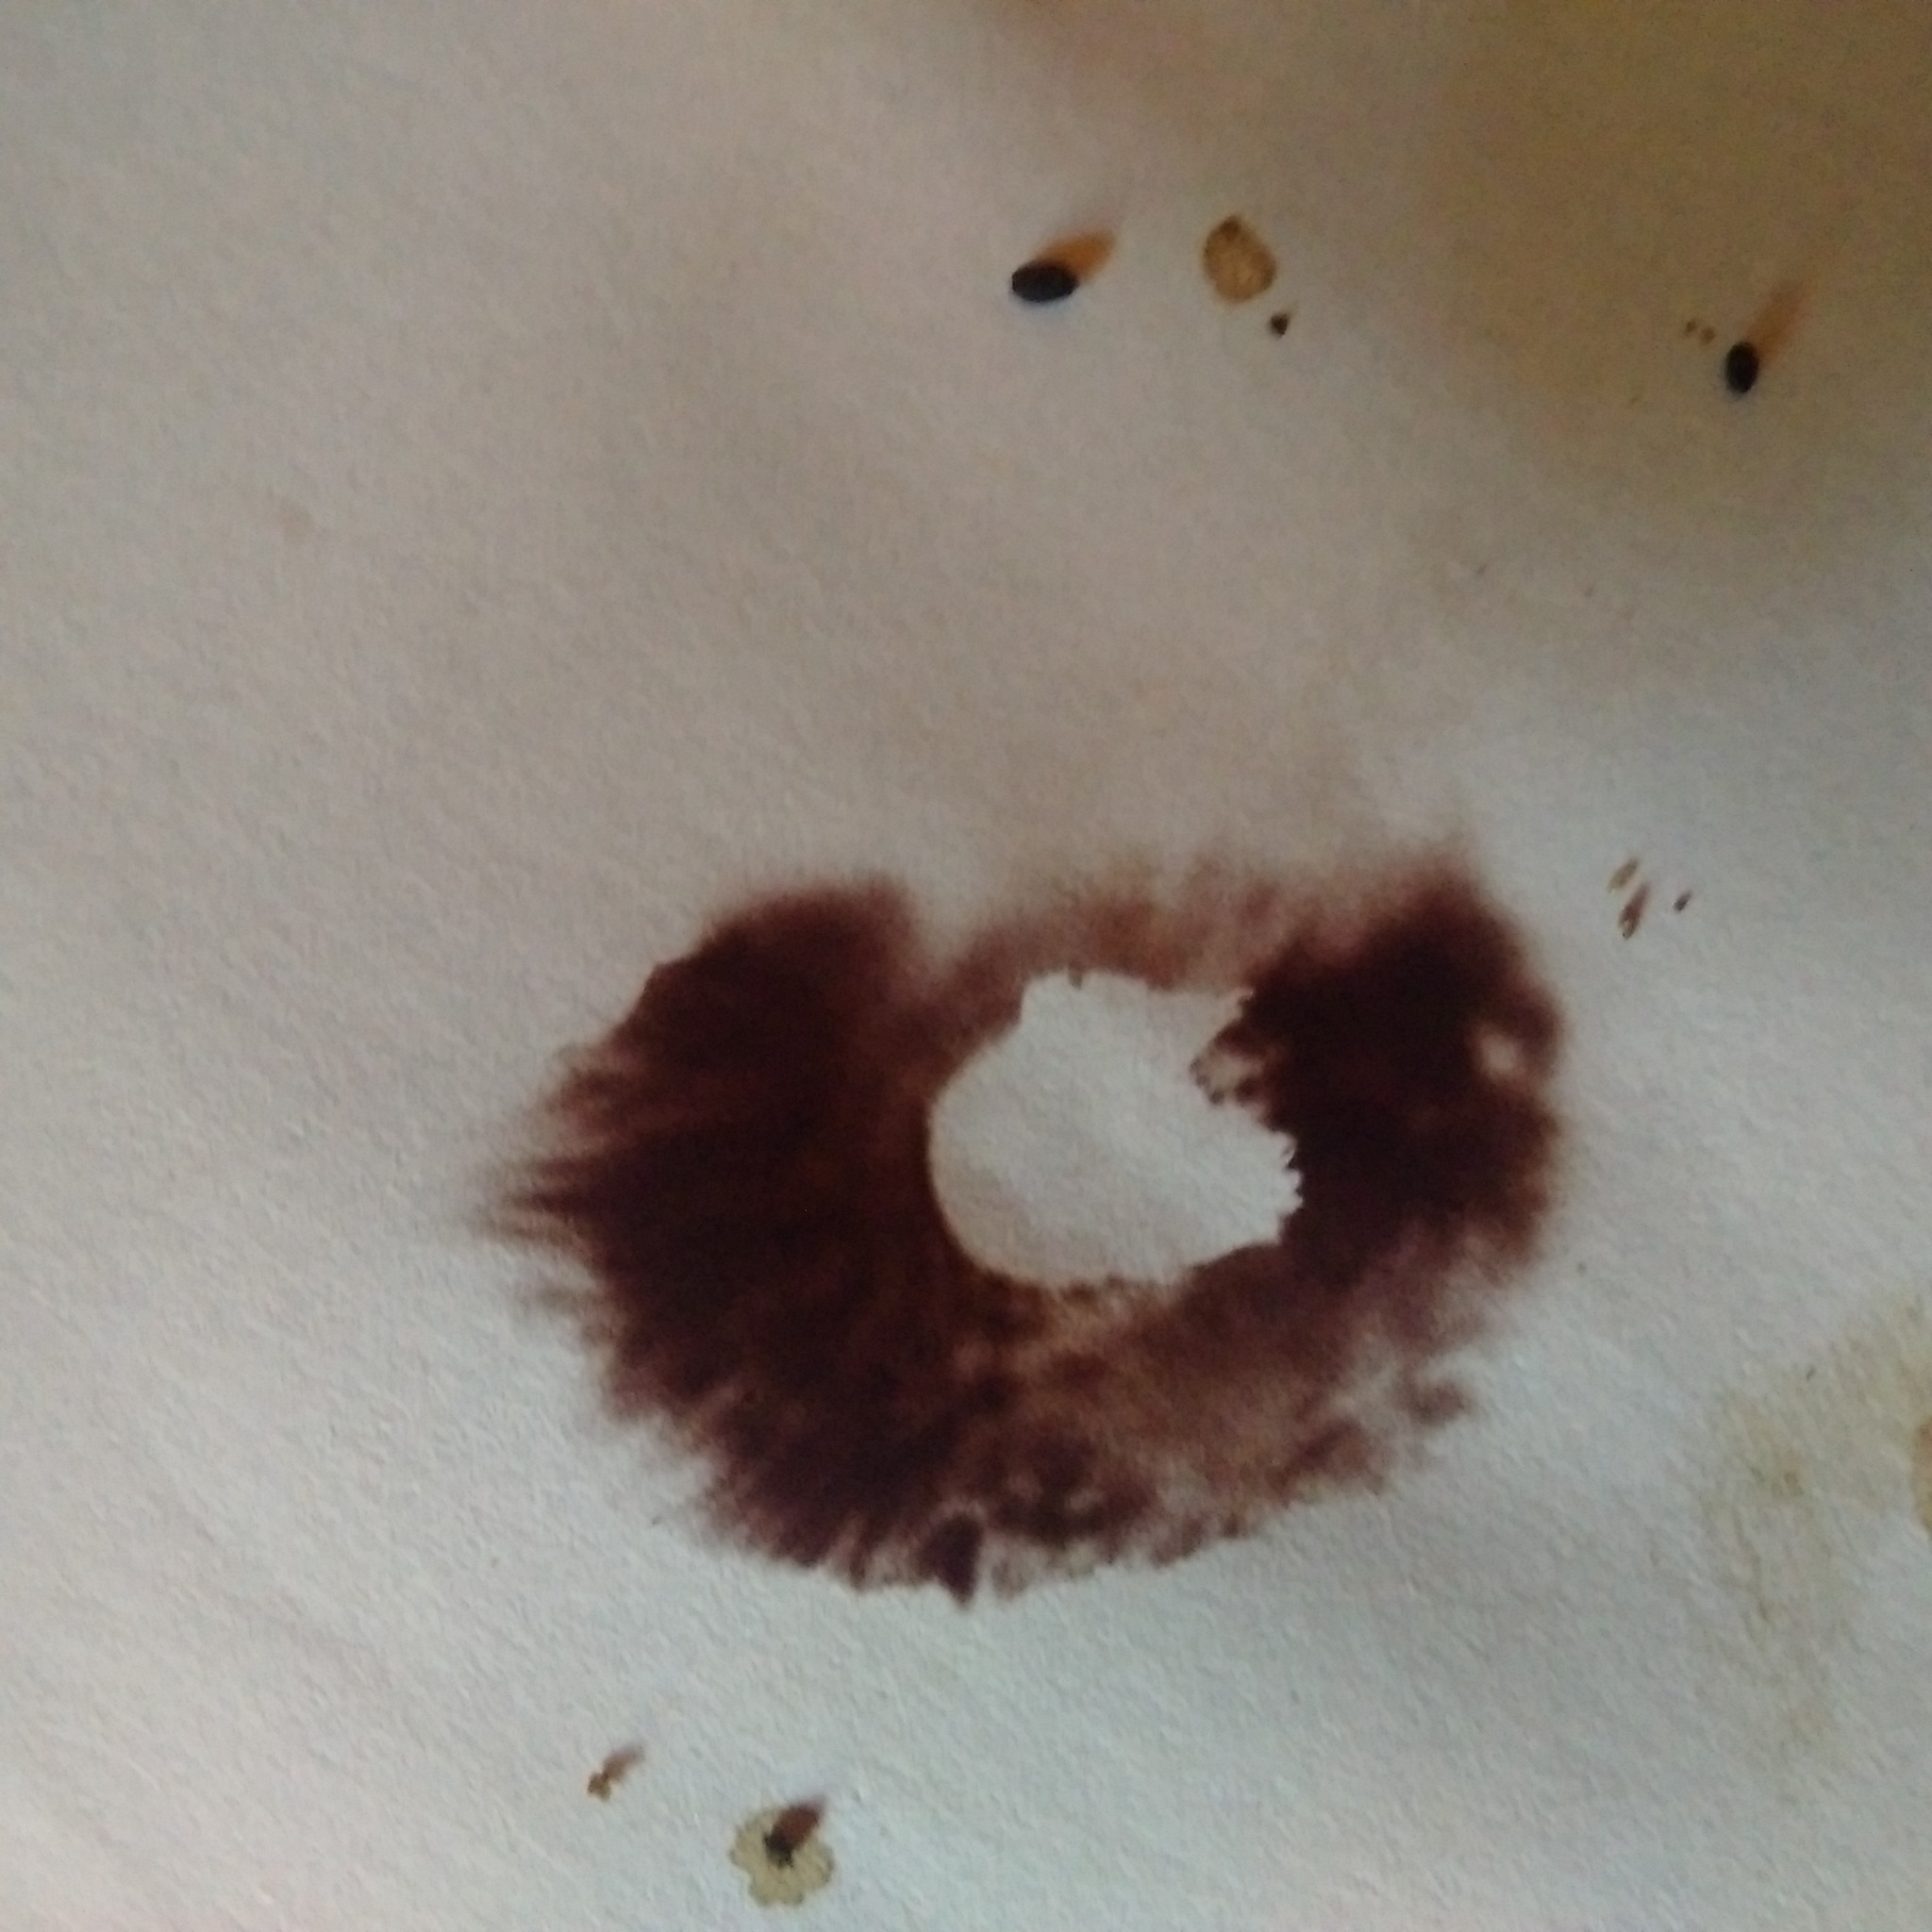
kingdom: Fungi
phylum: Basidiomycota
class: Agaricomycetes
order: Agaricales
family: Hymenogastraceae
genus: Psilocybe
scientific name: Psilocybe caerulescens
